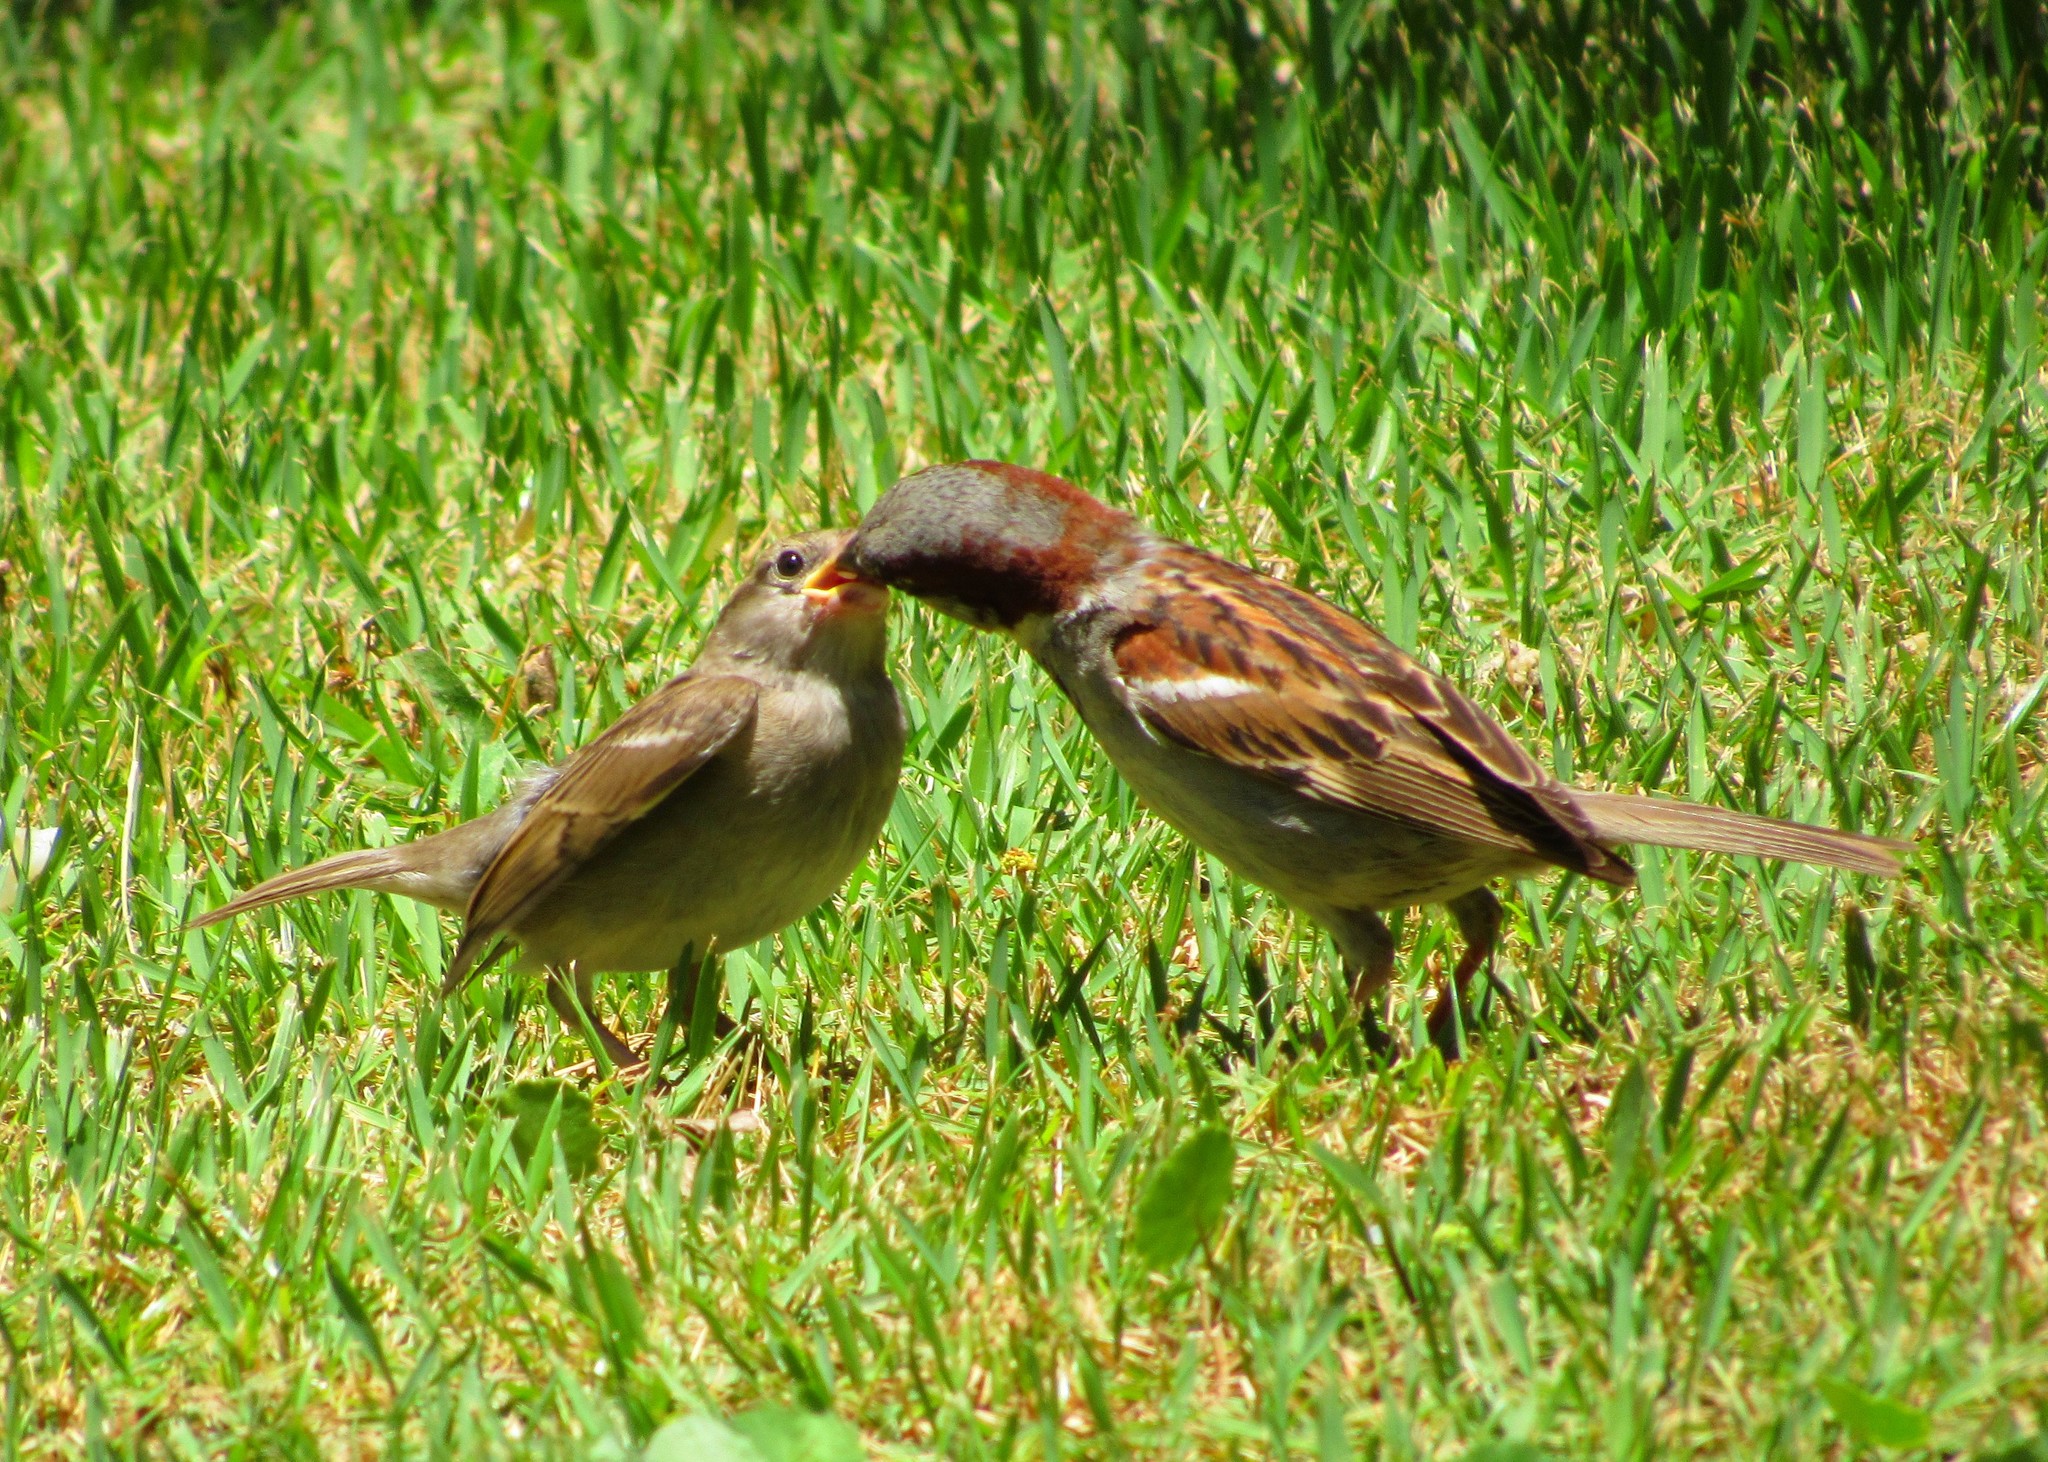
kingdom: Animalia
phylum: Chordata
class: Aves
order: Passeriformes
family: Passeridae
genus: Passer
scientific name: Passer domesticus
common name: House sparrow
